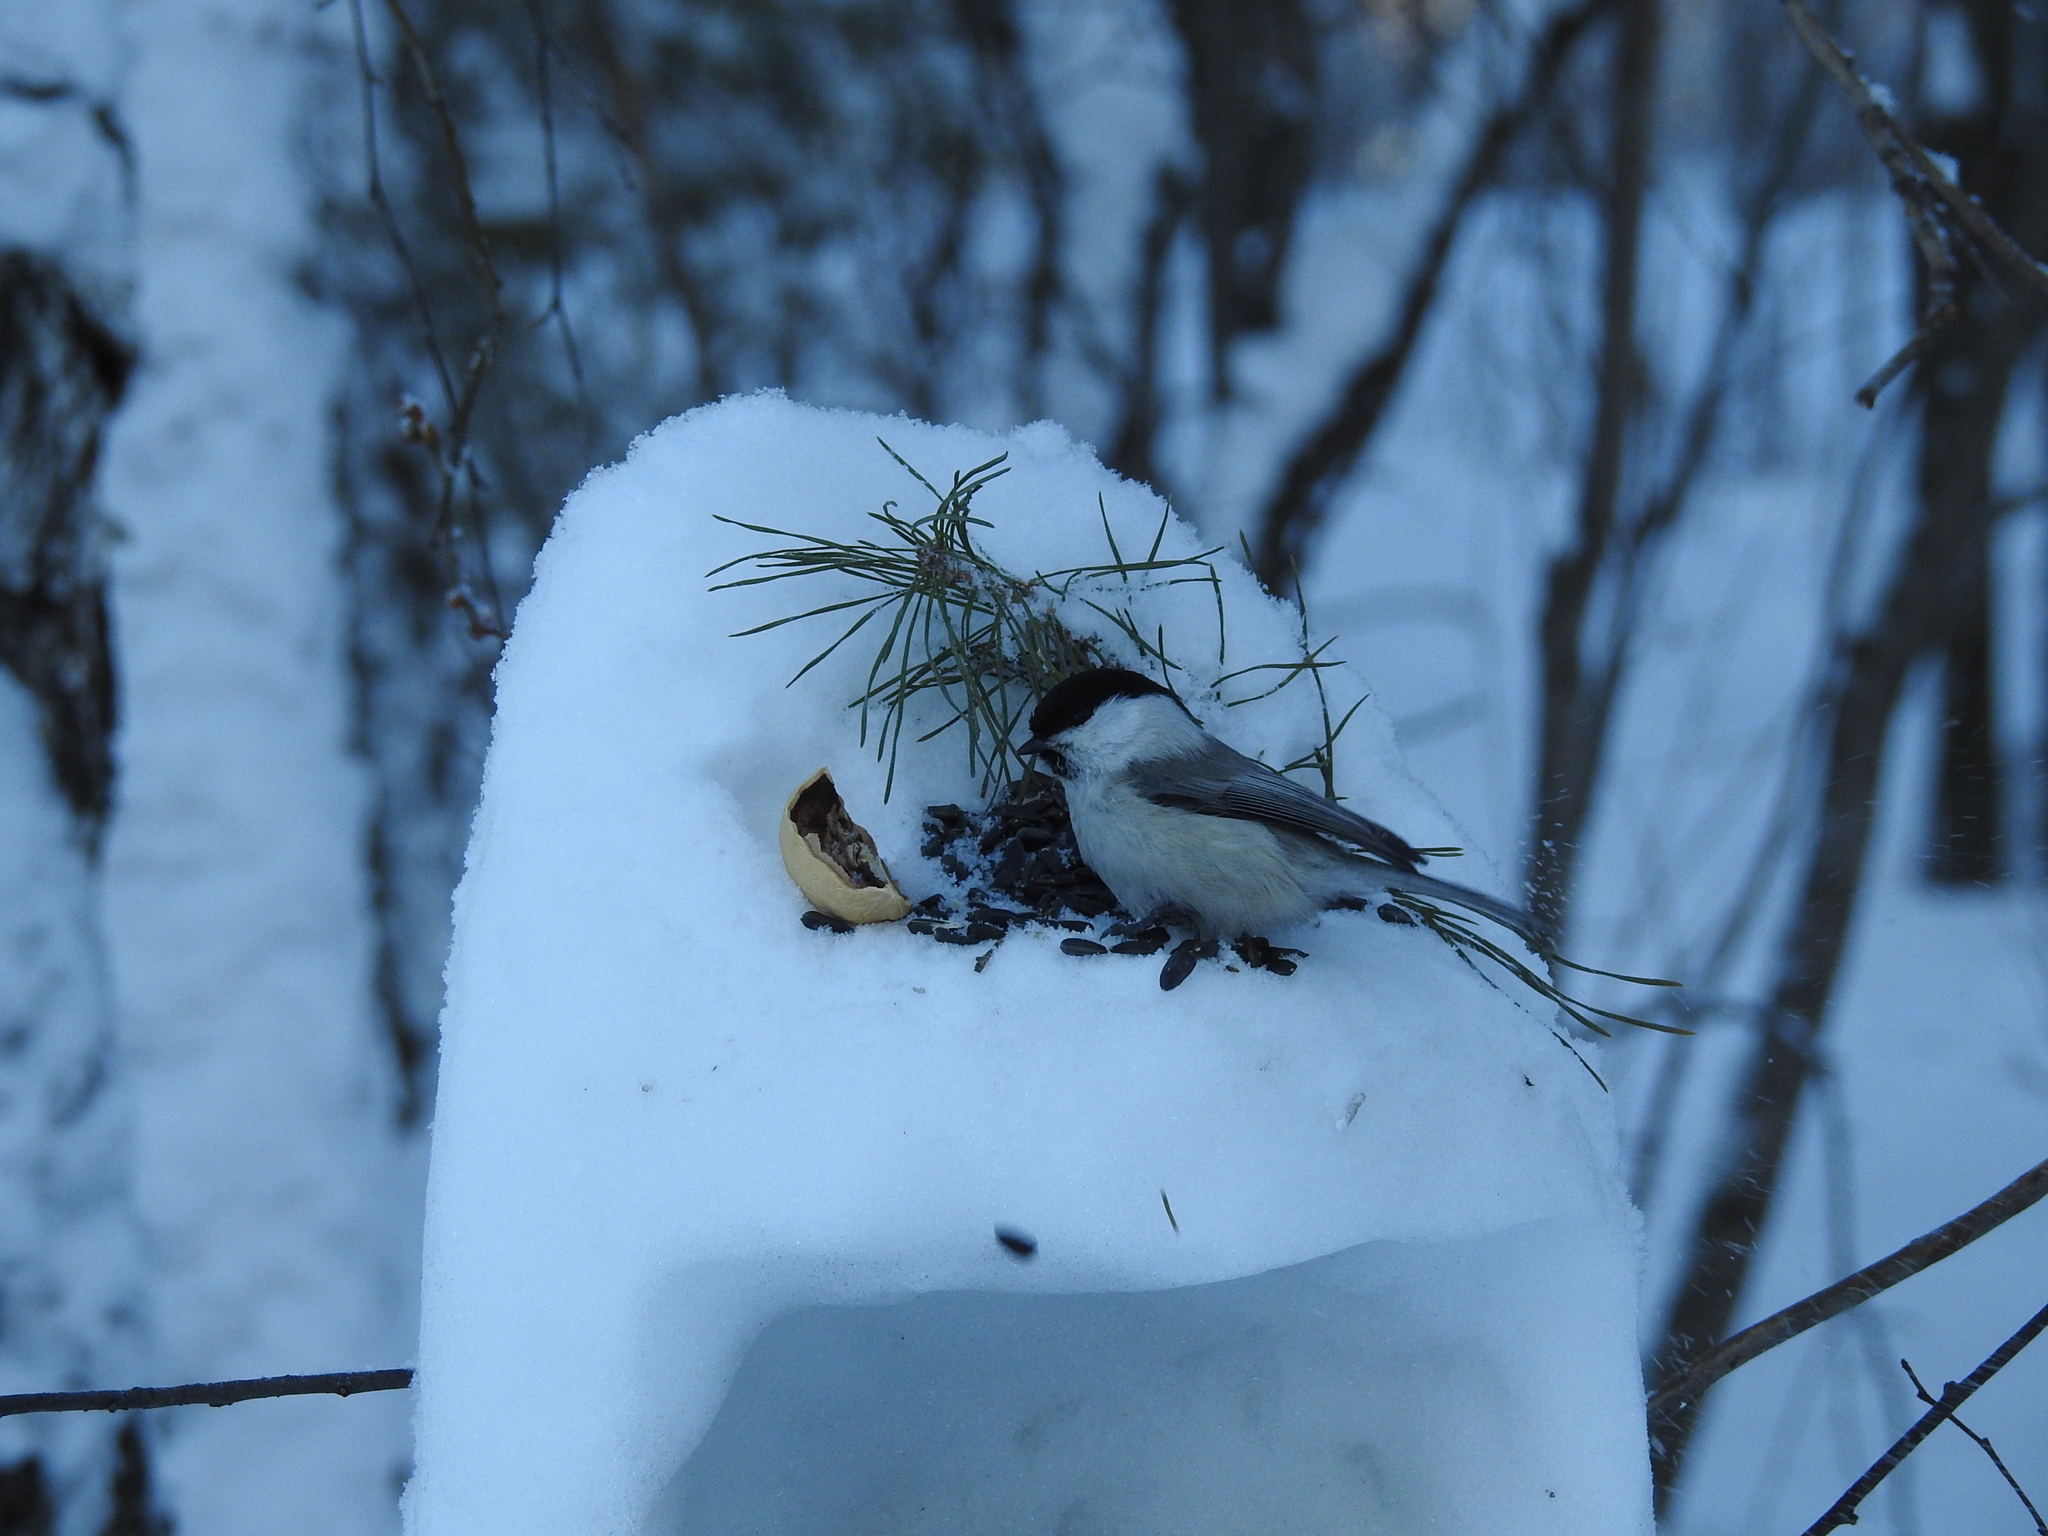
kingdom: Animalia
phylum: Chordata
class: Aves
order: Passeriformes
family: Paridae
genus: Poecile
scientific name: Poecile montanus
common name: Willow tit
